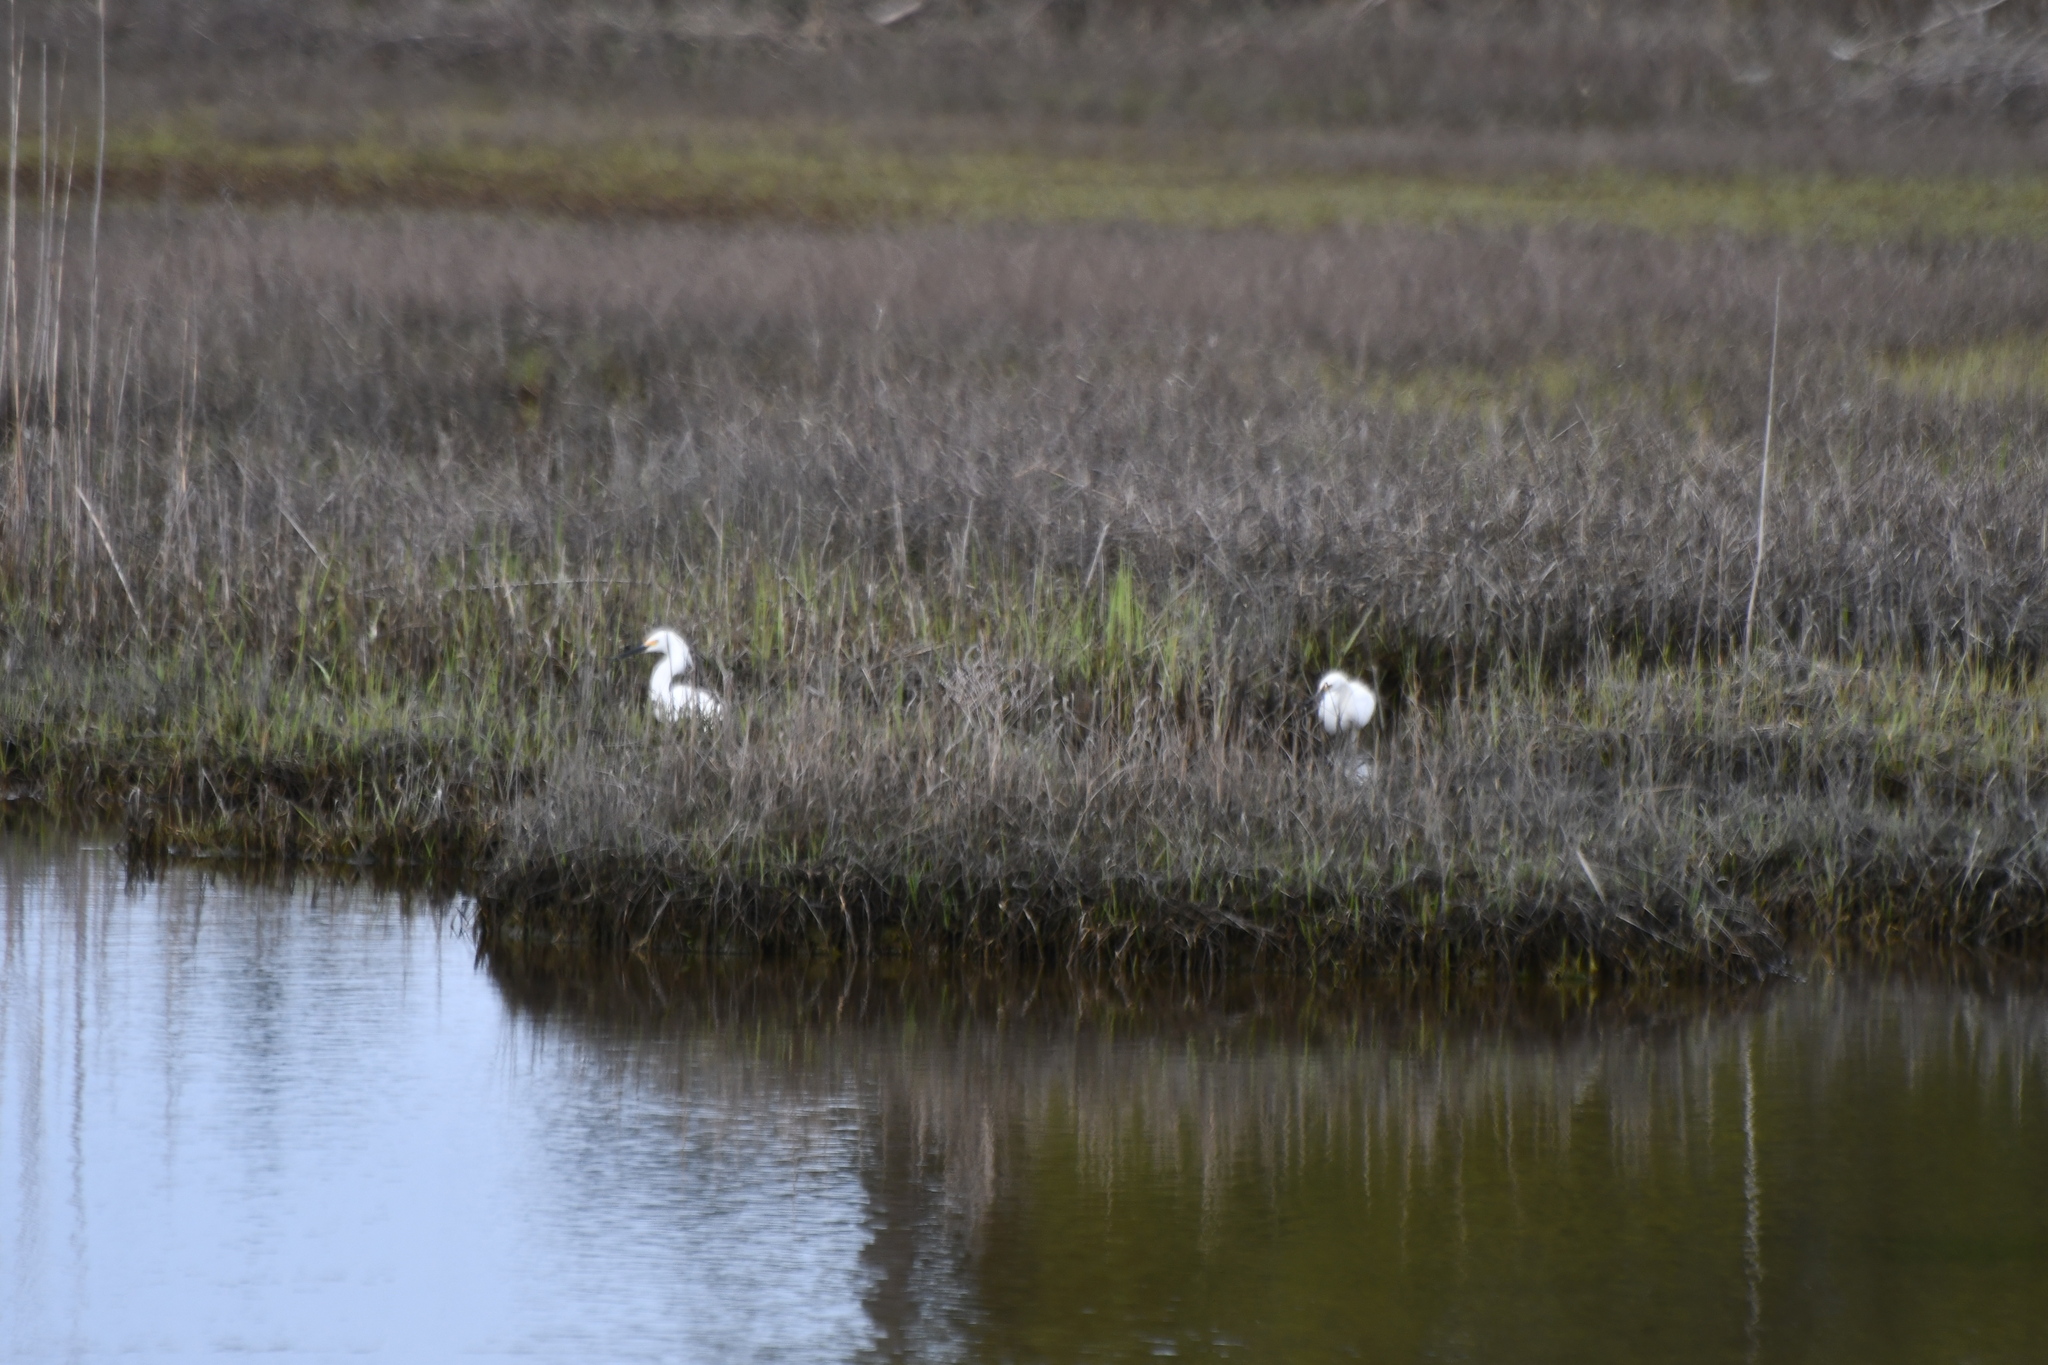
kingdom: Animalia
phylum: Chordata
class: Aves
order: Pelecaniformes
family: Ardeidae
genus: Egretta
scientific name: Egretta thula
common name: Snowy egret
